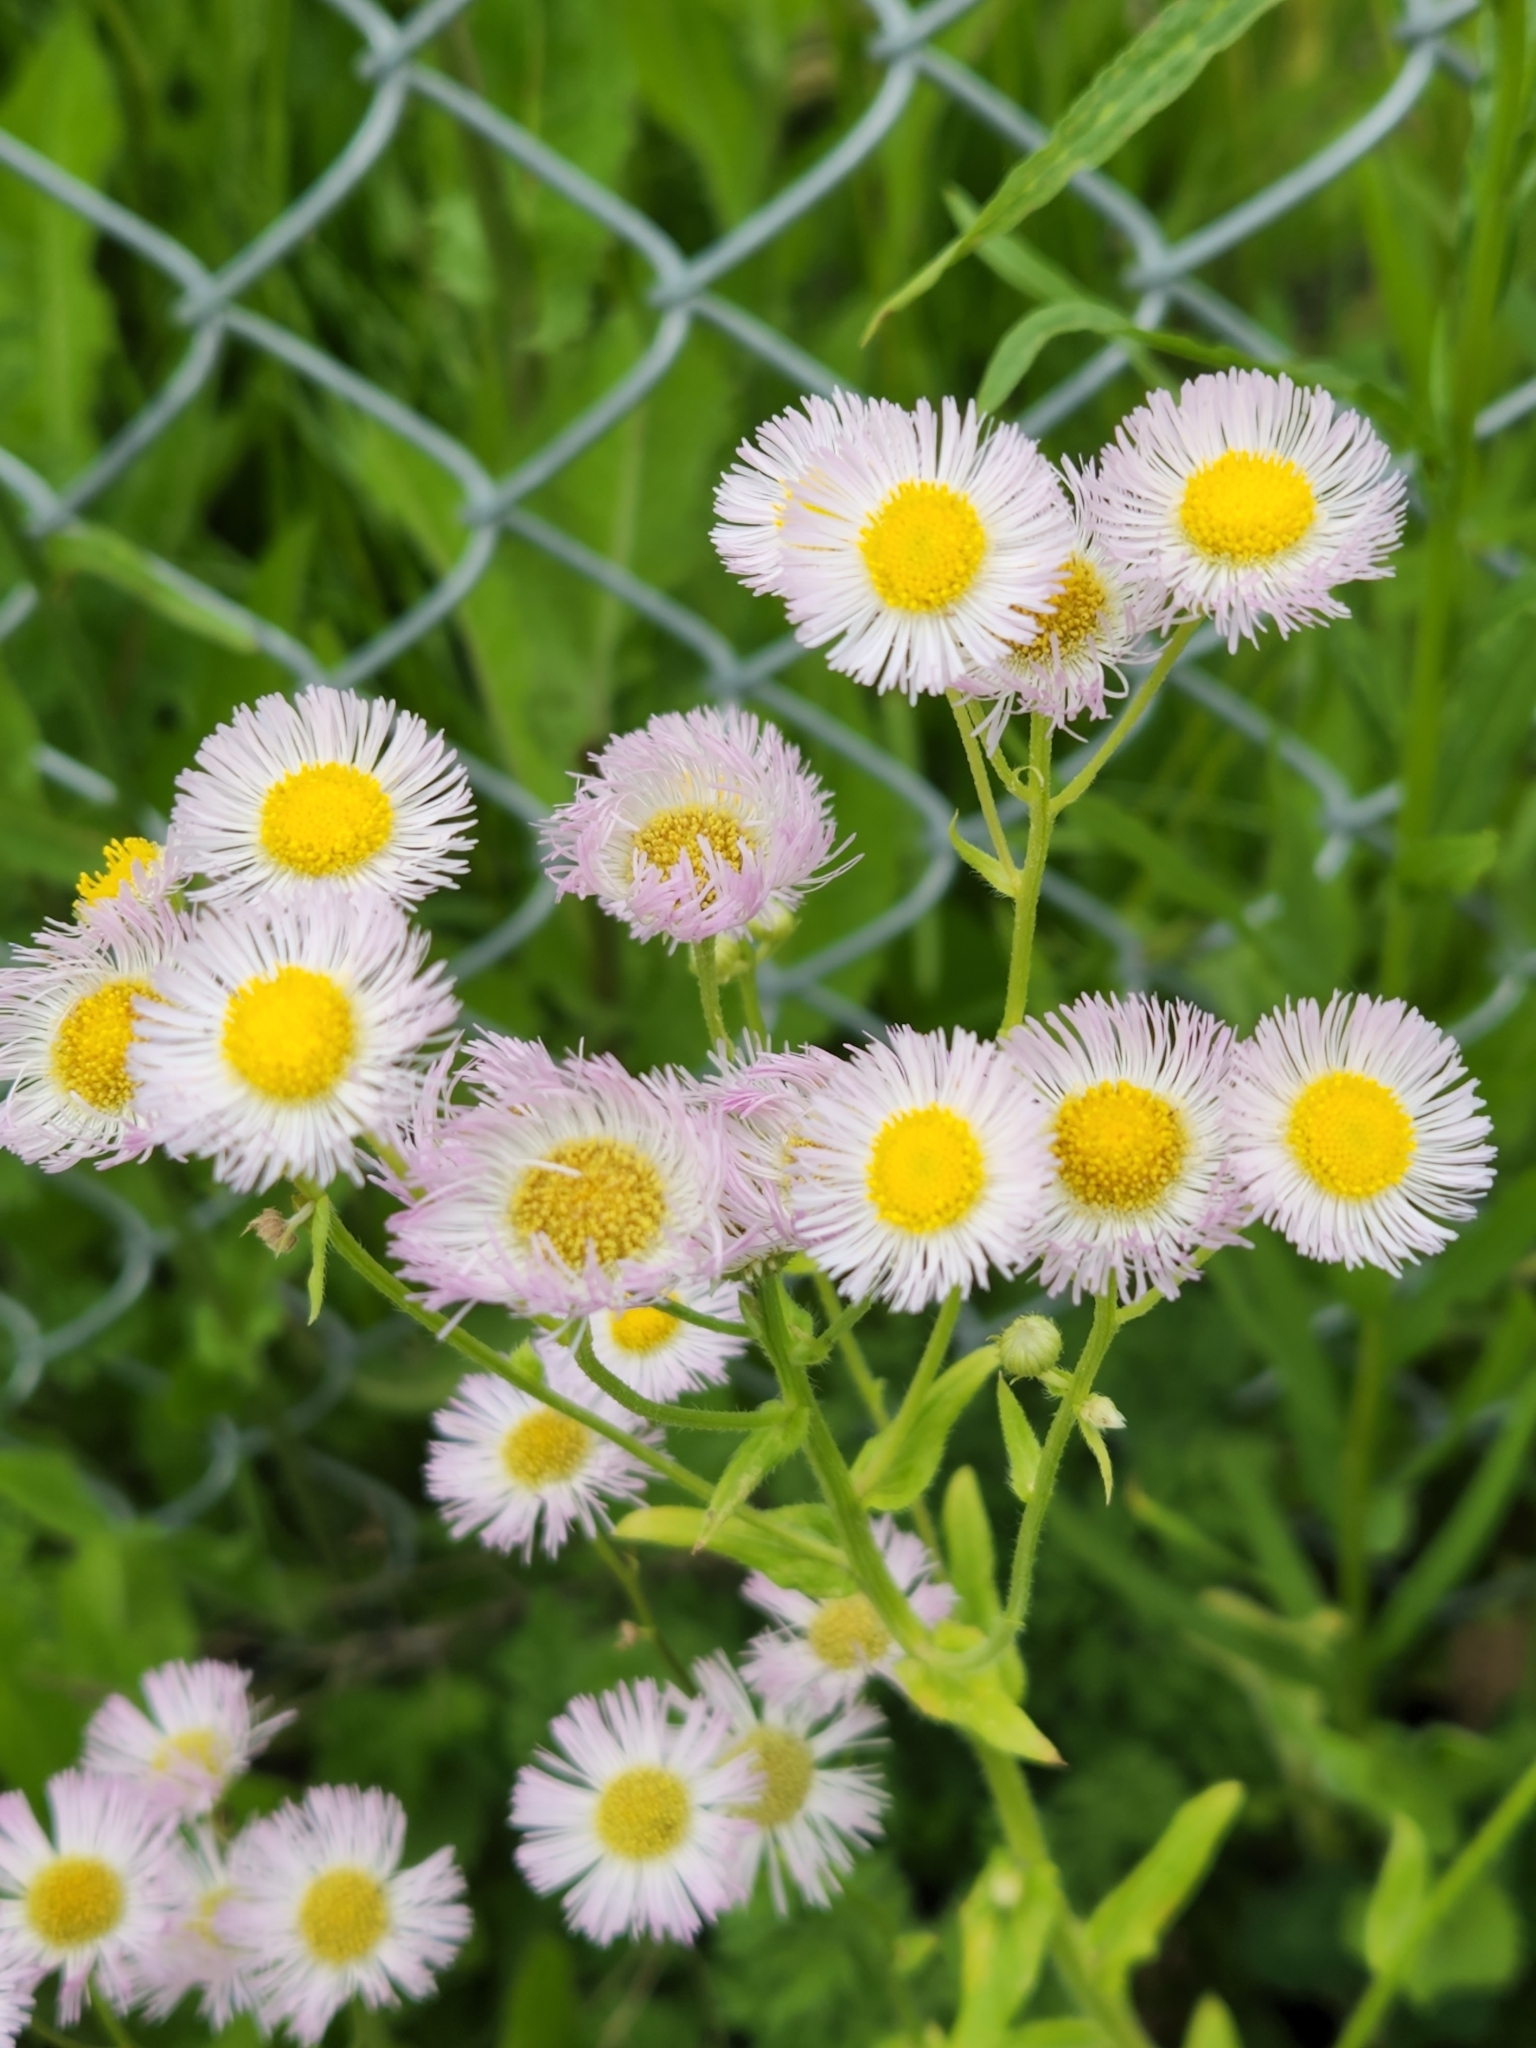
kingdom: Plantae
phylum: Tracheophyta
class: Magnoliopsida
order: Asterales
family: Asteraceae
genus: Erigeron
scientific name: Erigeron philadelphicus
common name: Robin's-plantain
